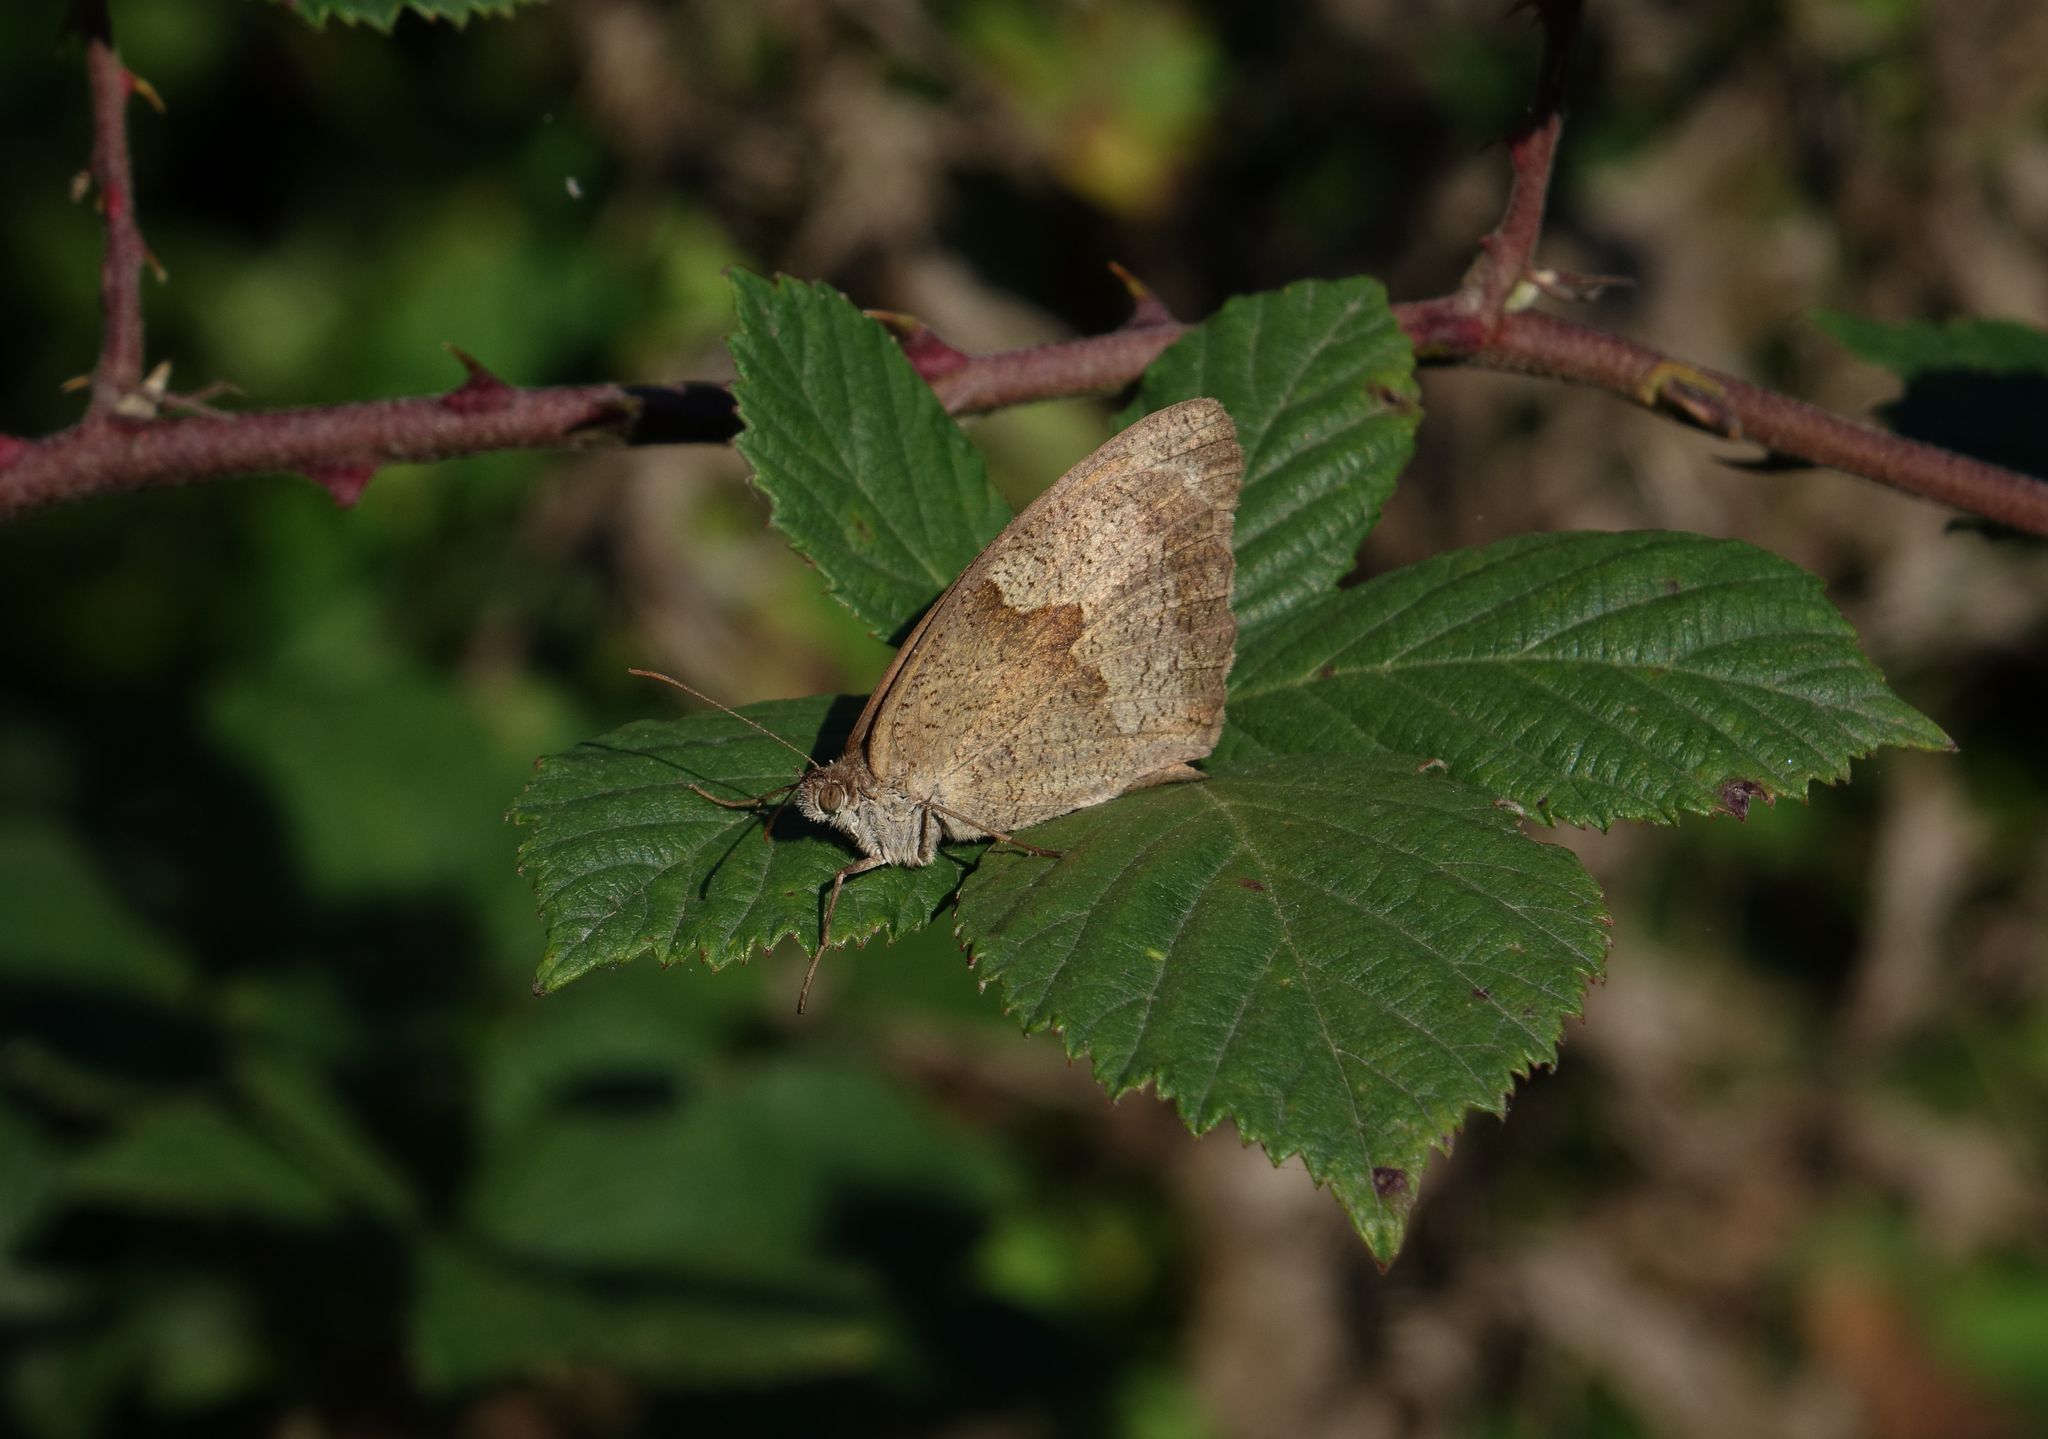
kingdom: Animalia
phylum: Arthropoda
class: Insecta
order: Lepidoptera
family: Nymphalidae
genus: Maniola
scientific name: Maniola jurtina
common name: Meadow brown
